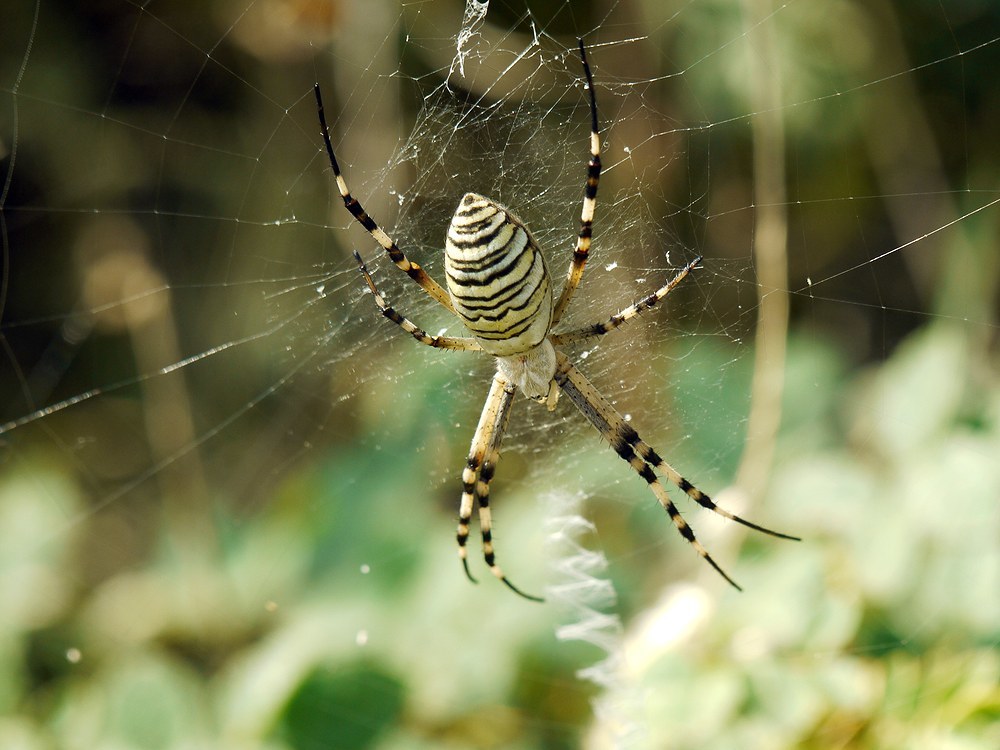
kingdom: Animalia
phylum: Arthropoda
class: Arachnida
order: Araneae
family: Araneidae
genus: Argiope
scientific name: Argiope bruennichi
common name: Wasp spider
